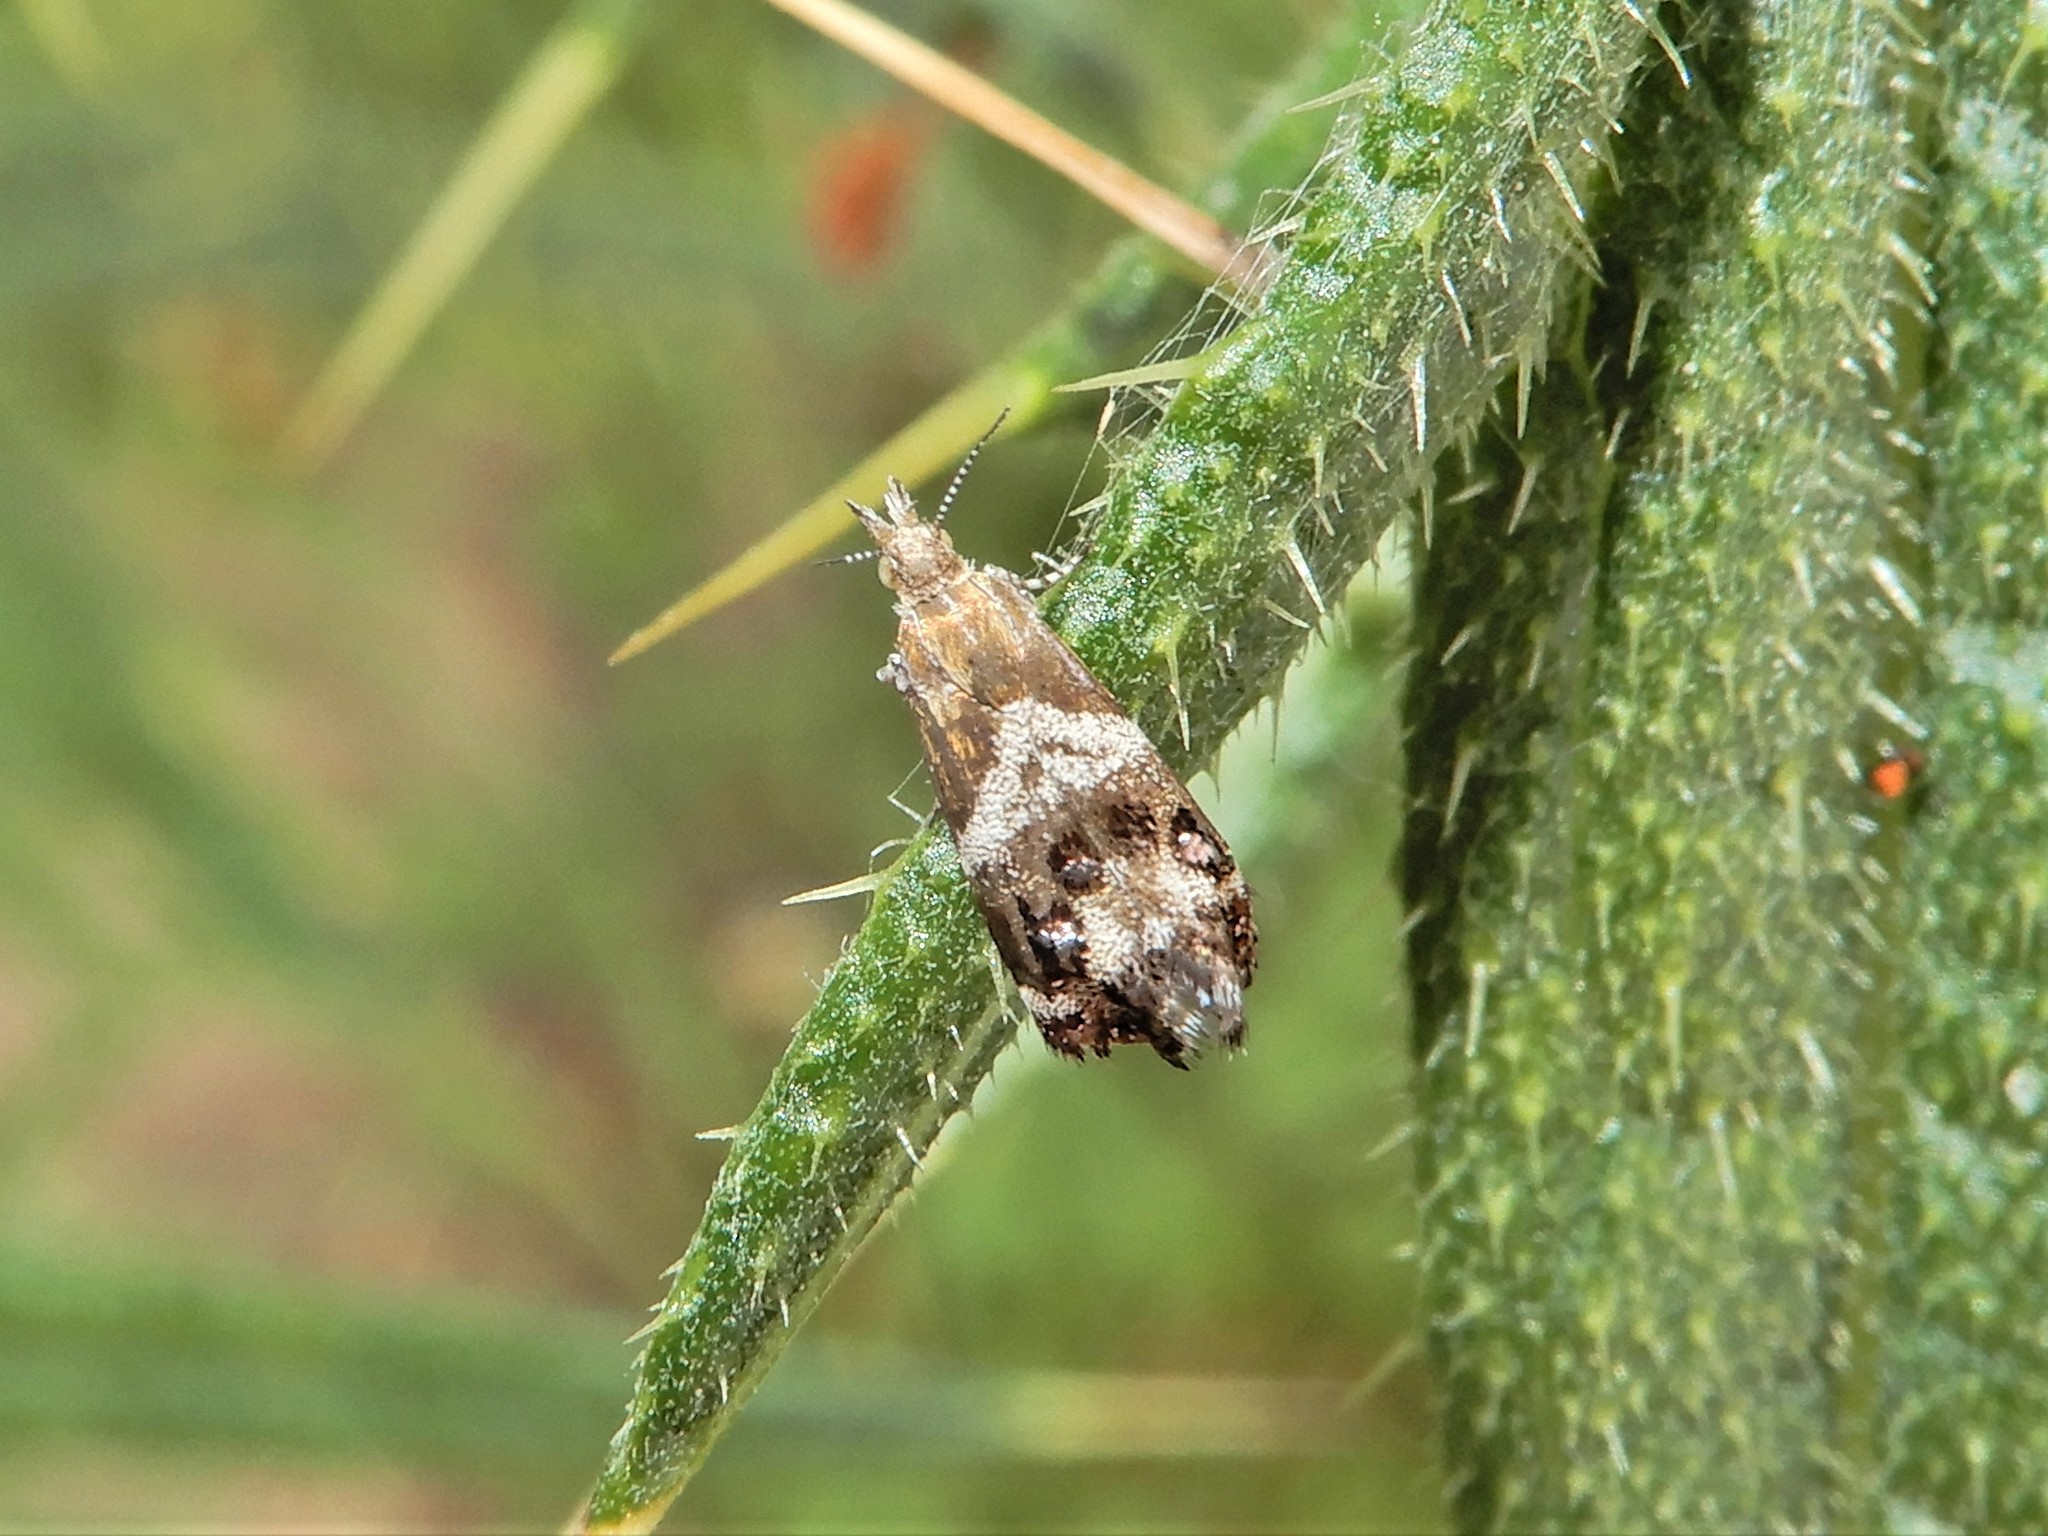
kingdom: Animalia
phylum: Arthropoda
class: Insecta
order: Lepidoptera
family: Choreutidae
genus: Tebenna
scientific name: Tebenna micalis
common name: Vagrant twitcher
